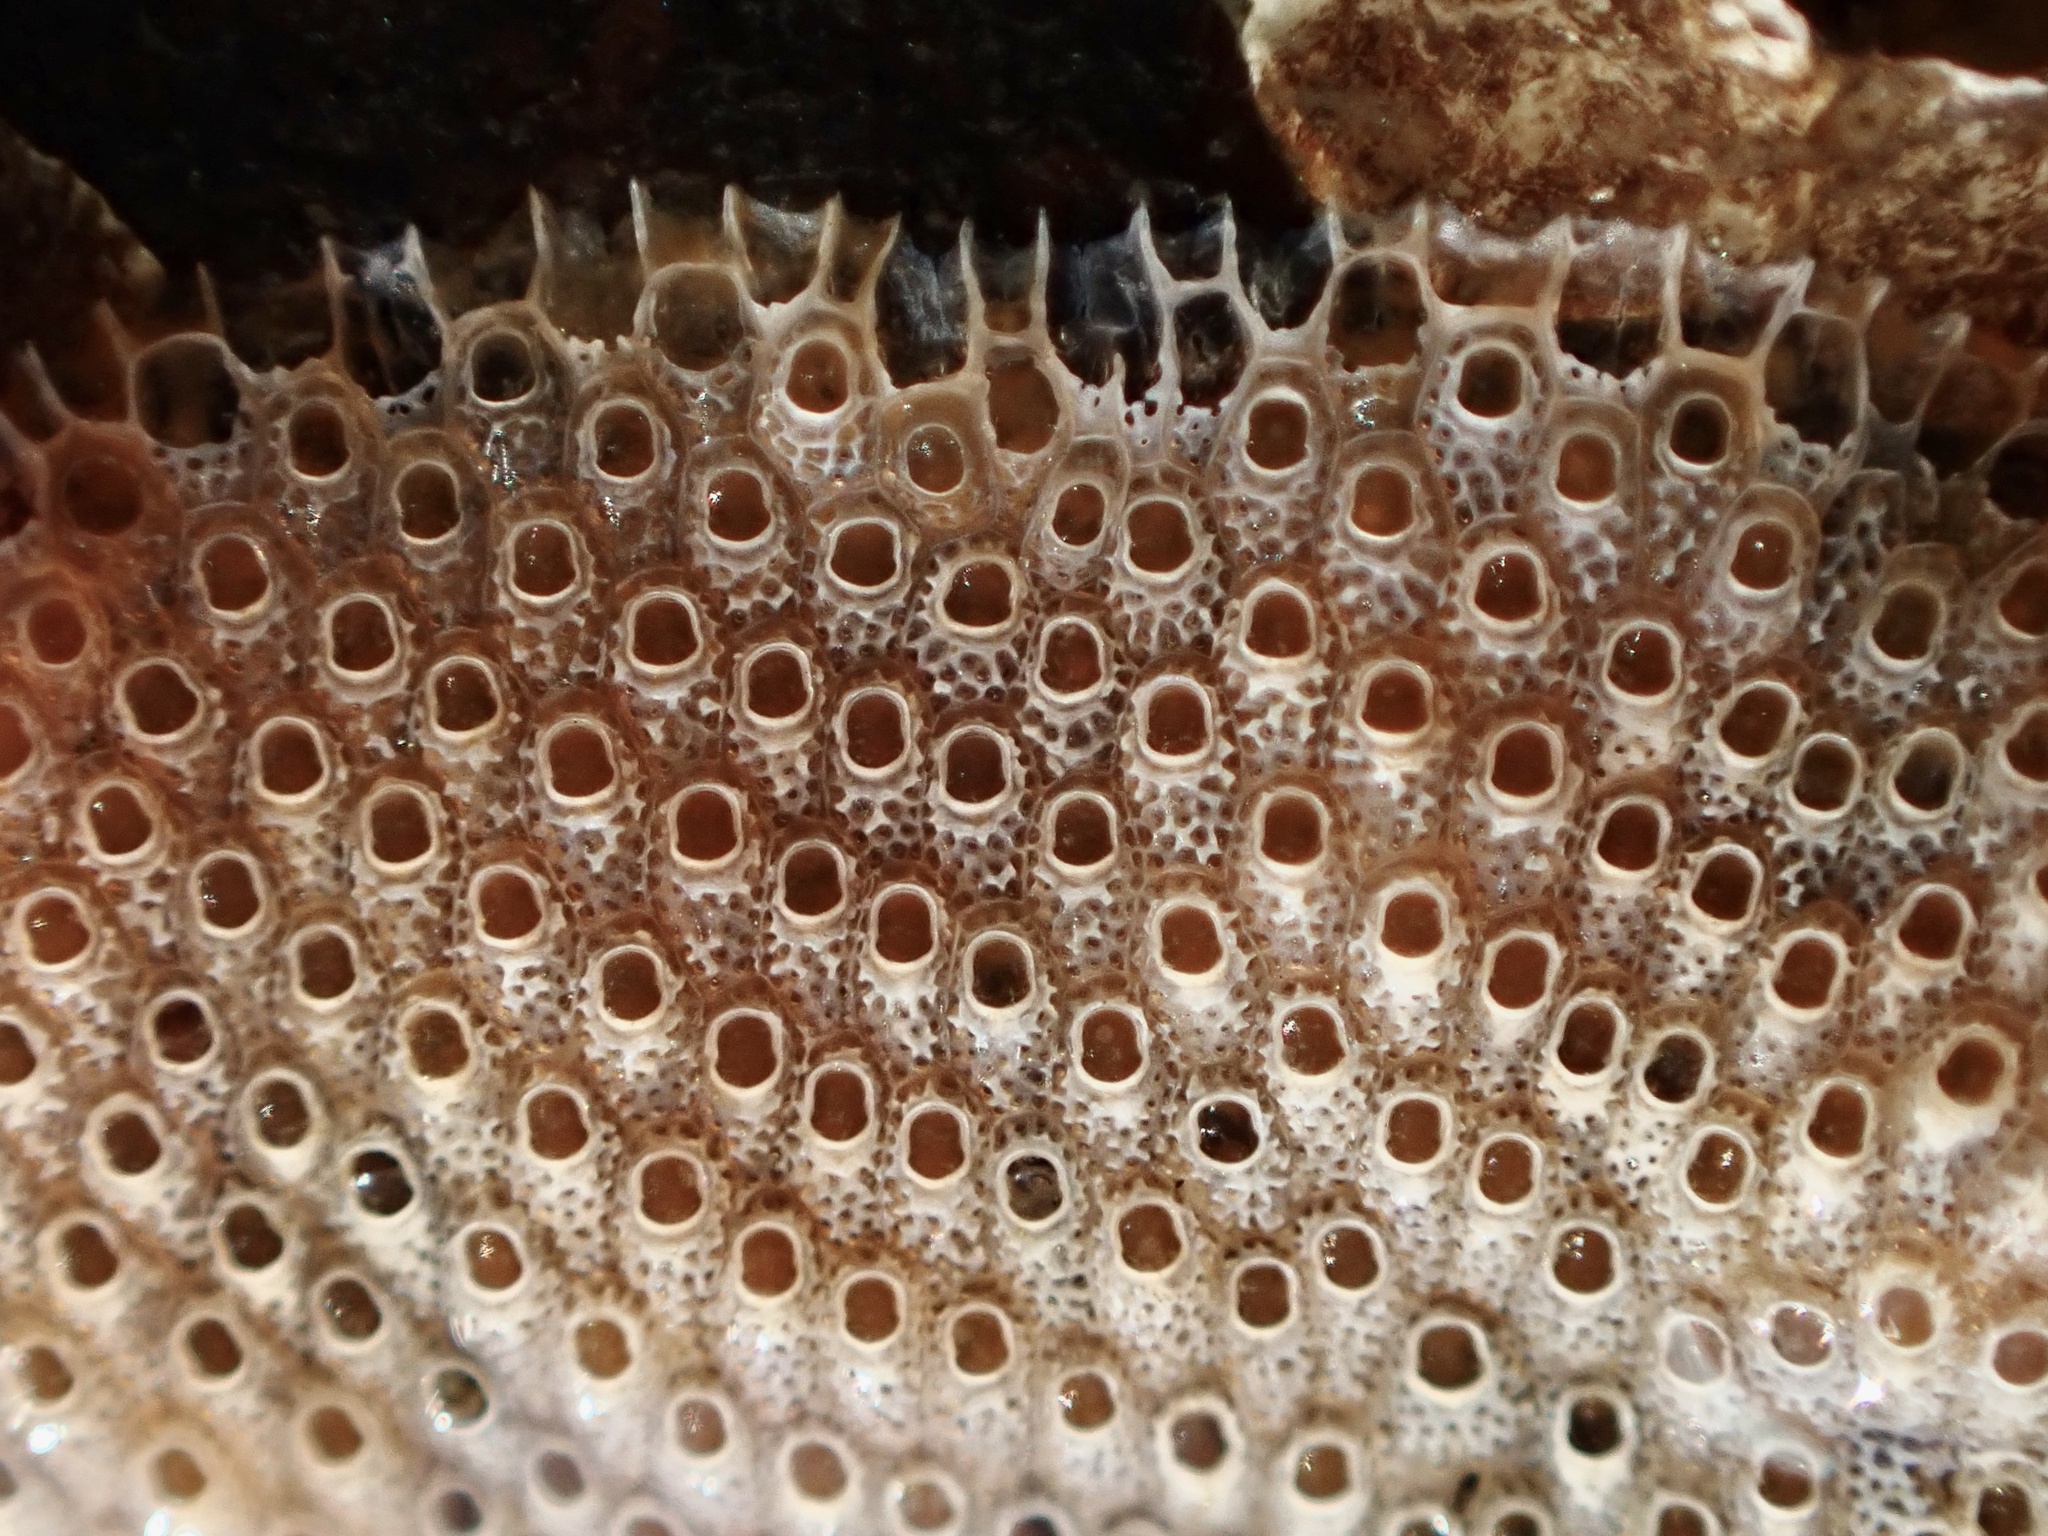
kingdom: Animalia
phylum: Bryozoa
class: Gymnolaemata
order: Cheilostomatida
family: Cryptosulidae
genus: Cryptosula
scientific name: Cryptosula pallasiana
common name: Red crust
